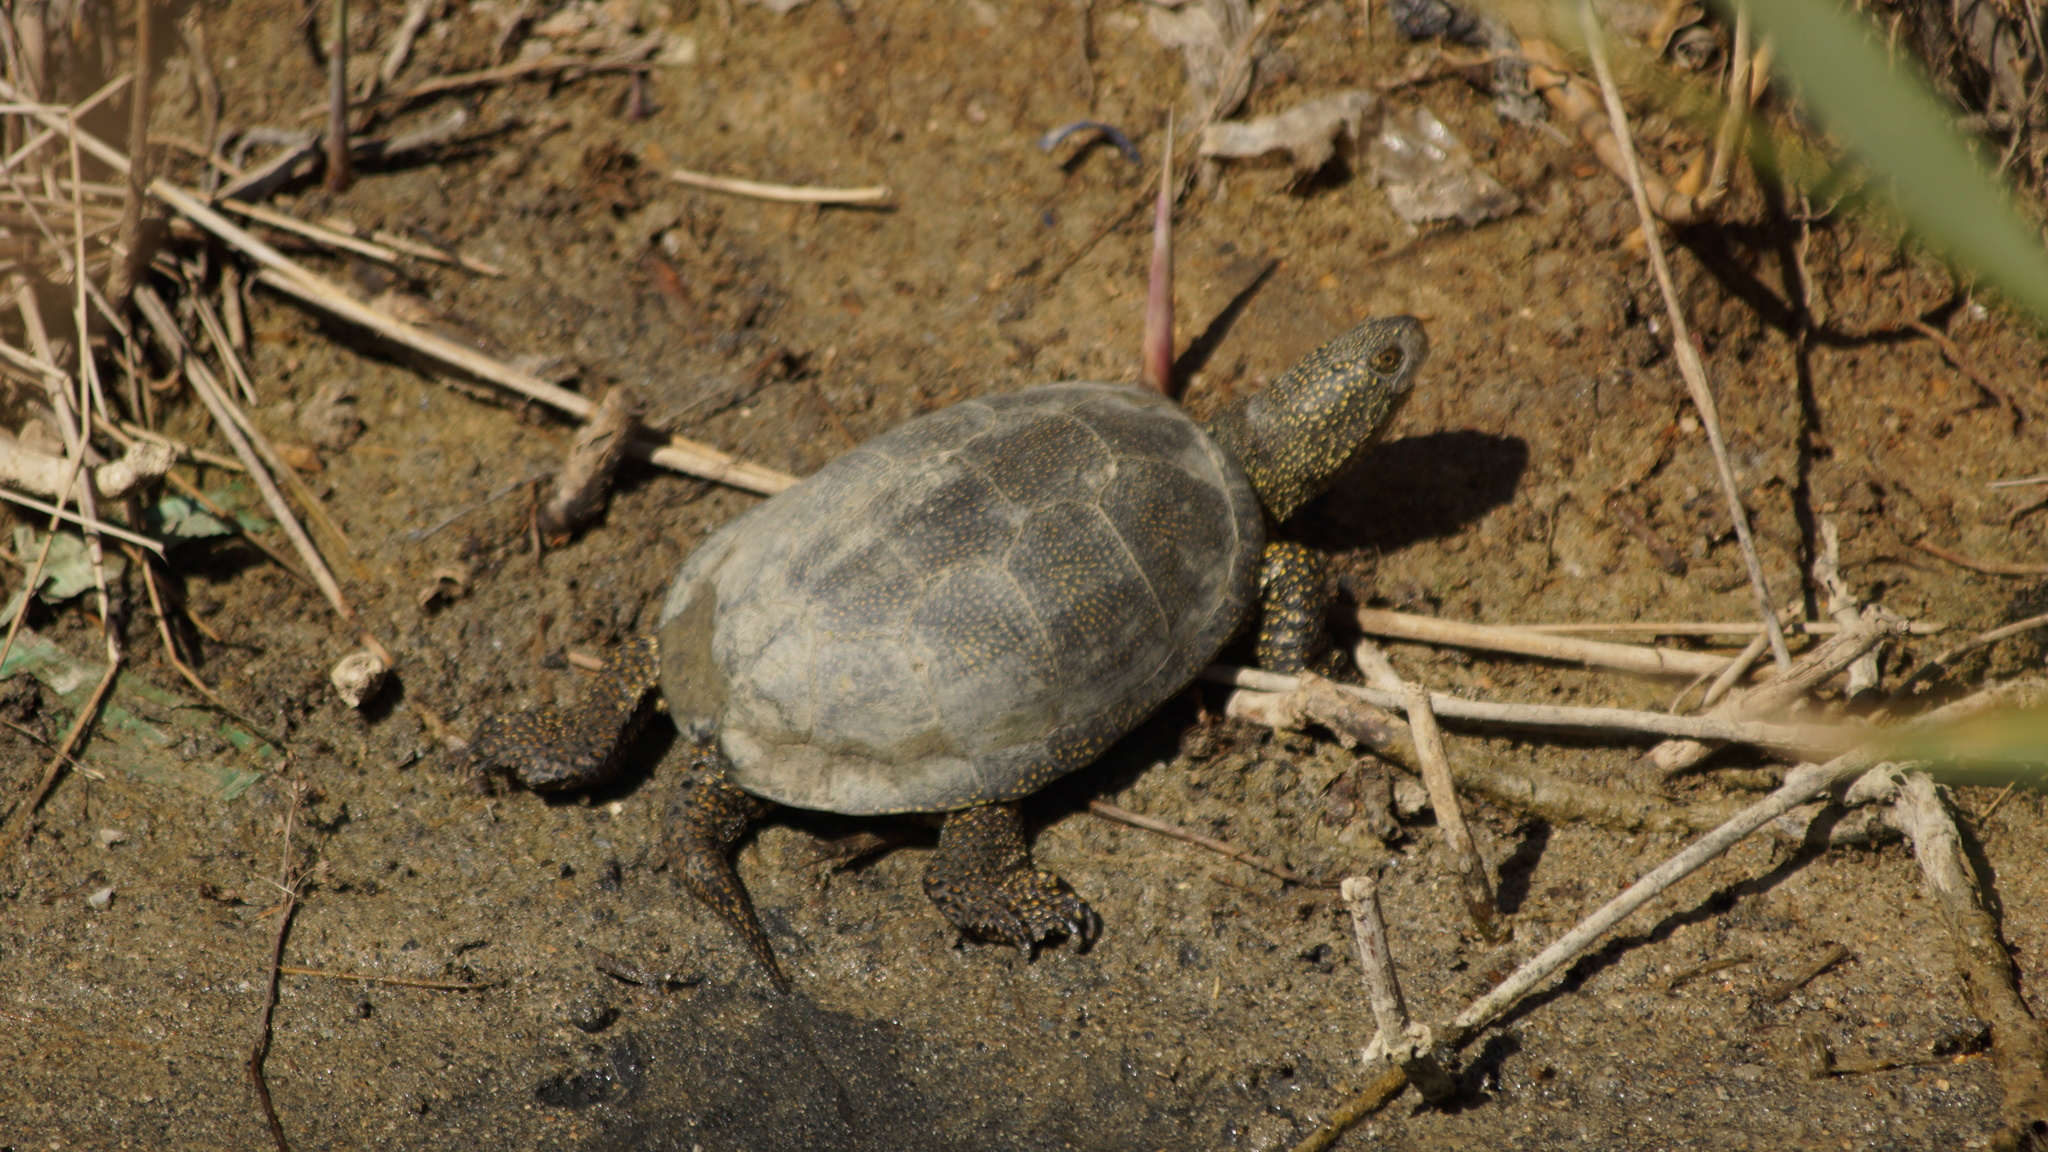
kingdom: Animalia
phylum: Chordata
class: Testudines
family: Emydidae
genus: Emys
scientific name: Emys orbicularis
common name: European pond turtle
